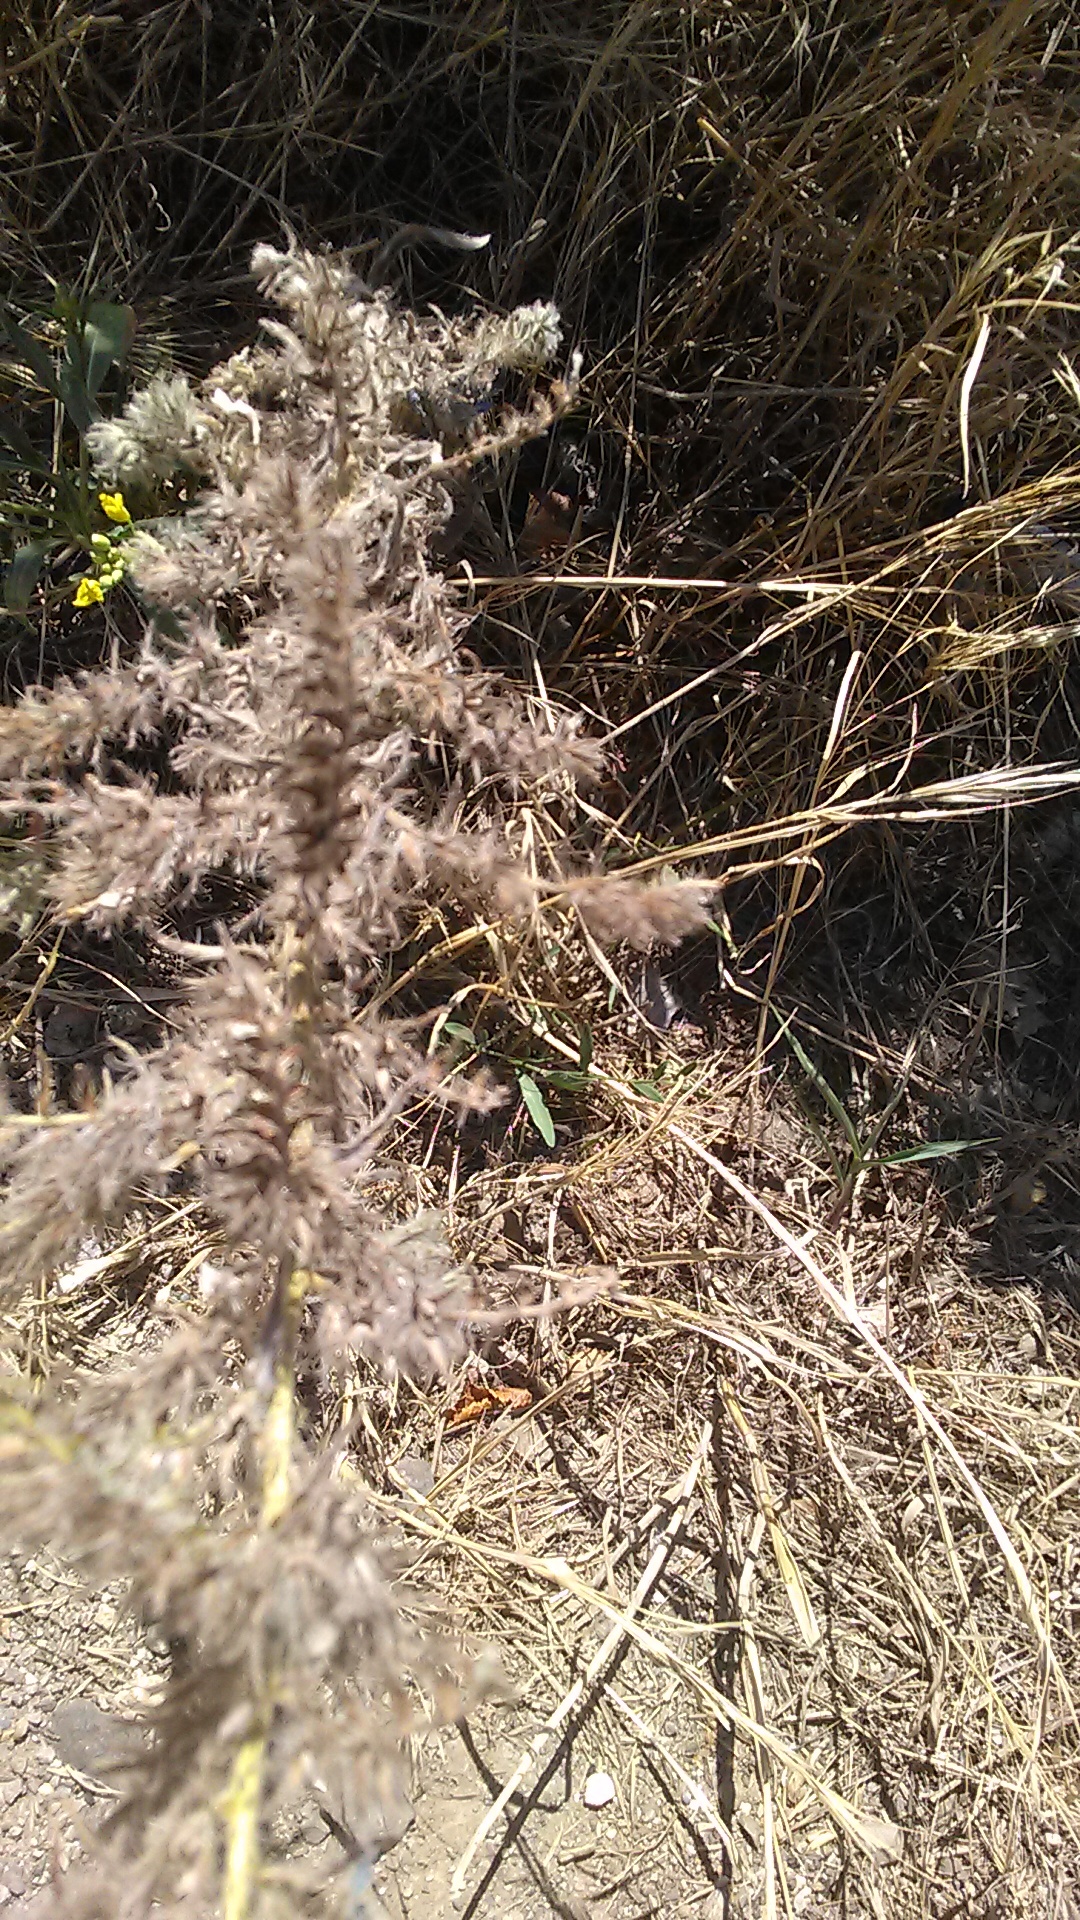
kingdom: Plantae
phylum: Tracheophyta
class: Magnoliopsida
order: Boraginales
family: Boraginaceae
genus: Echium
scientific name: Echium vulgare
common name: Common viper's bugloss
